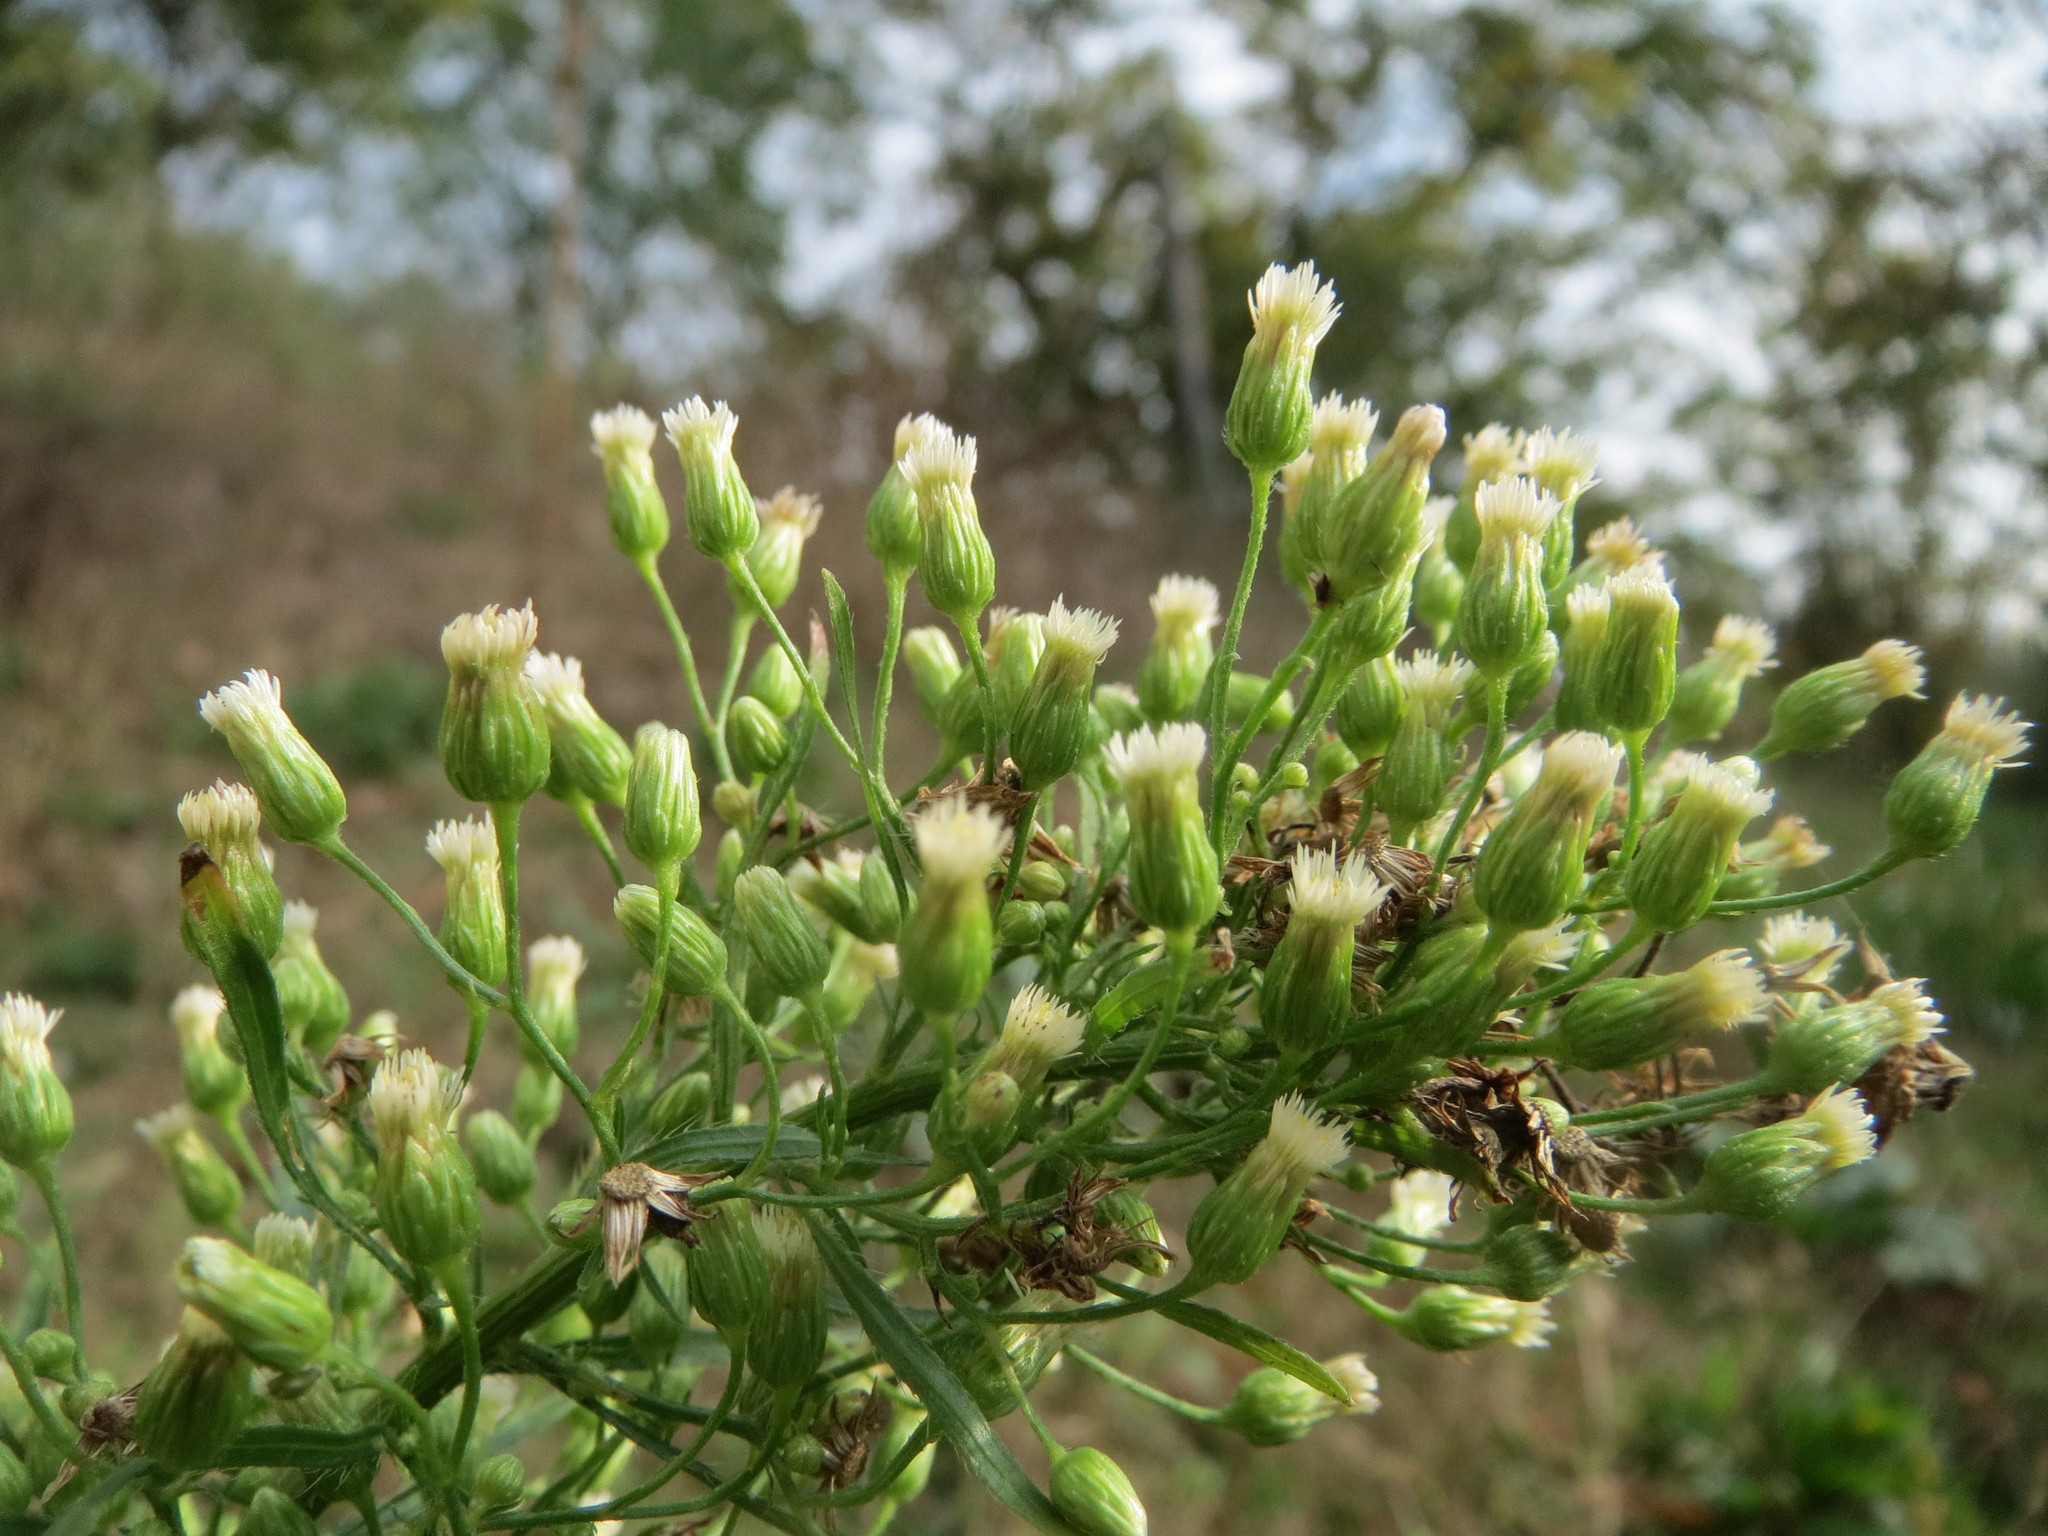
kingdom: Plantae
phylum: Tracheophyta
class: Magnoliopsida
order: Asterales
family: Asteraceae
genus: Erigeron
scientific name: Erigeron canadensis
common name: Canadian fleabane
